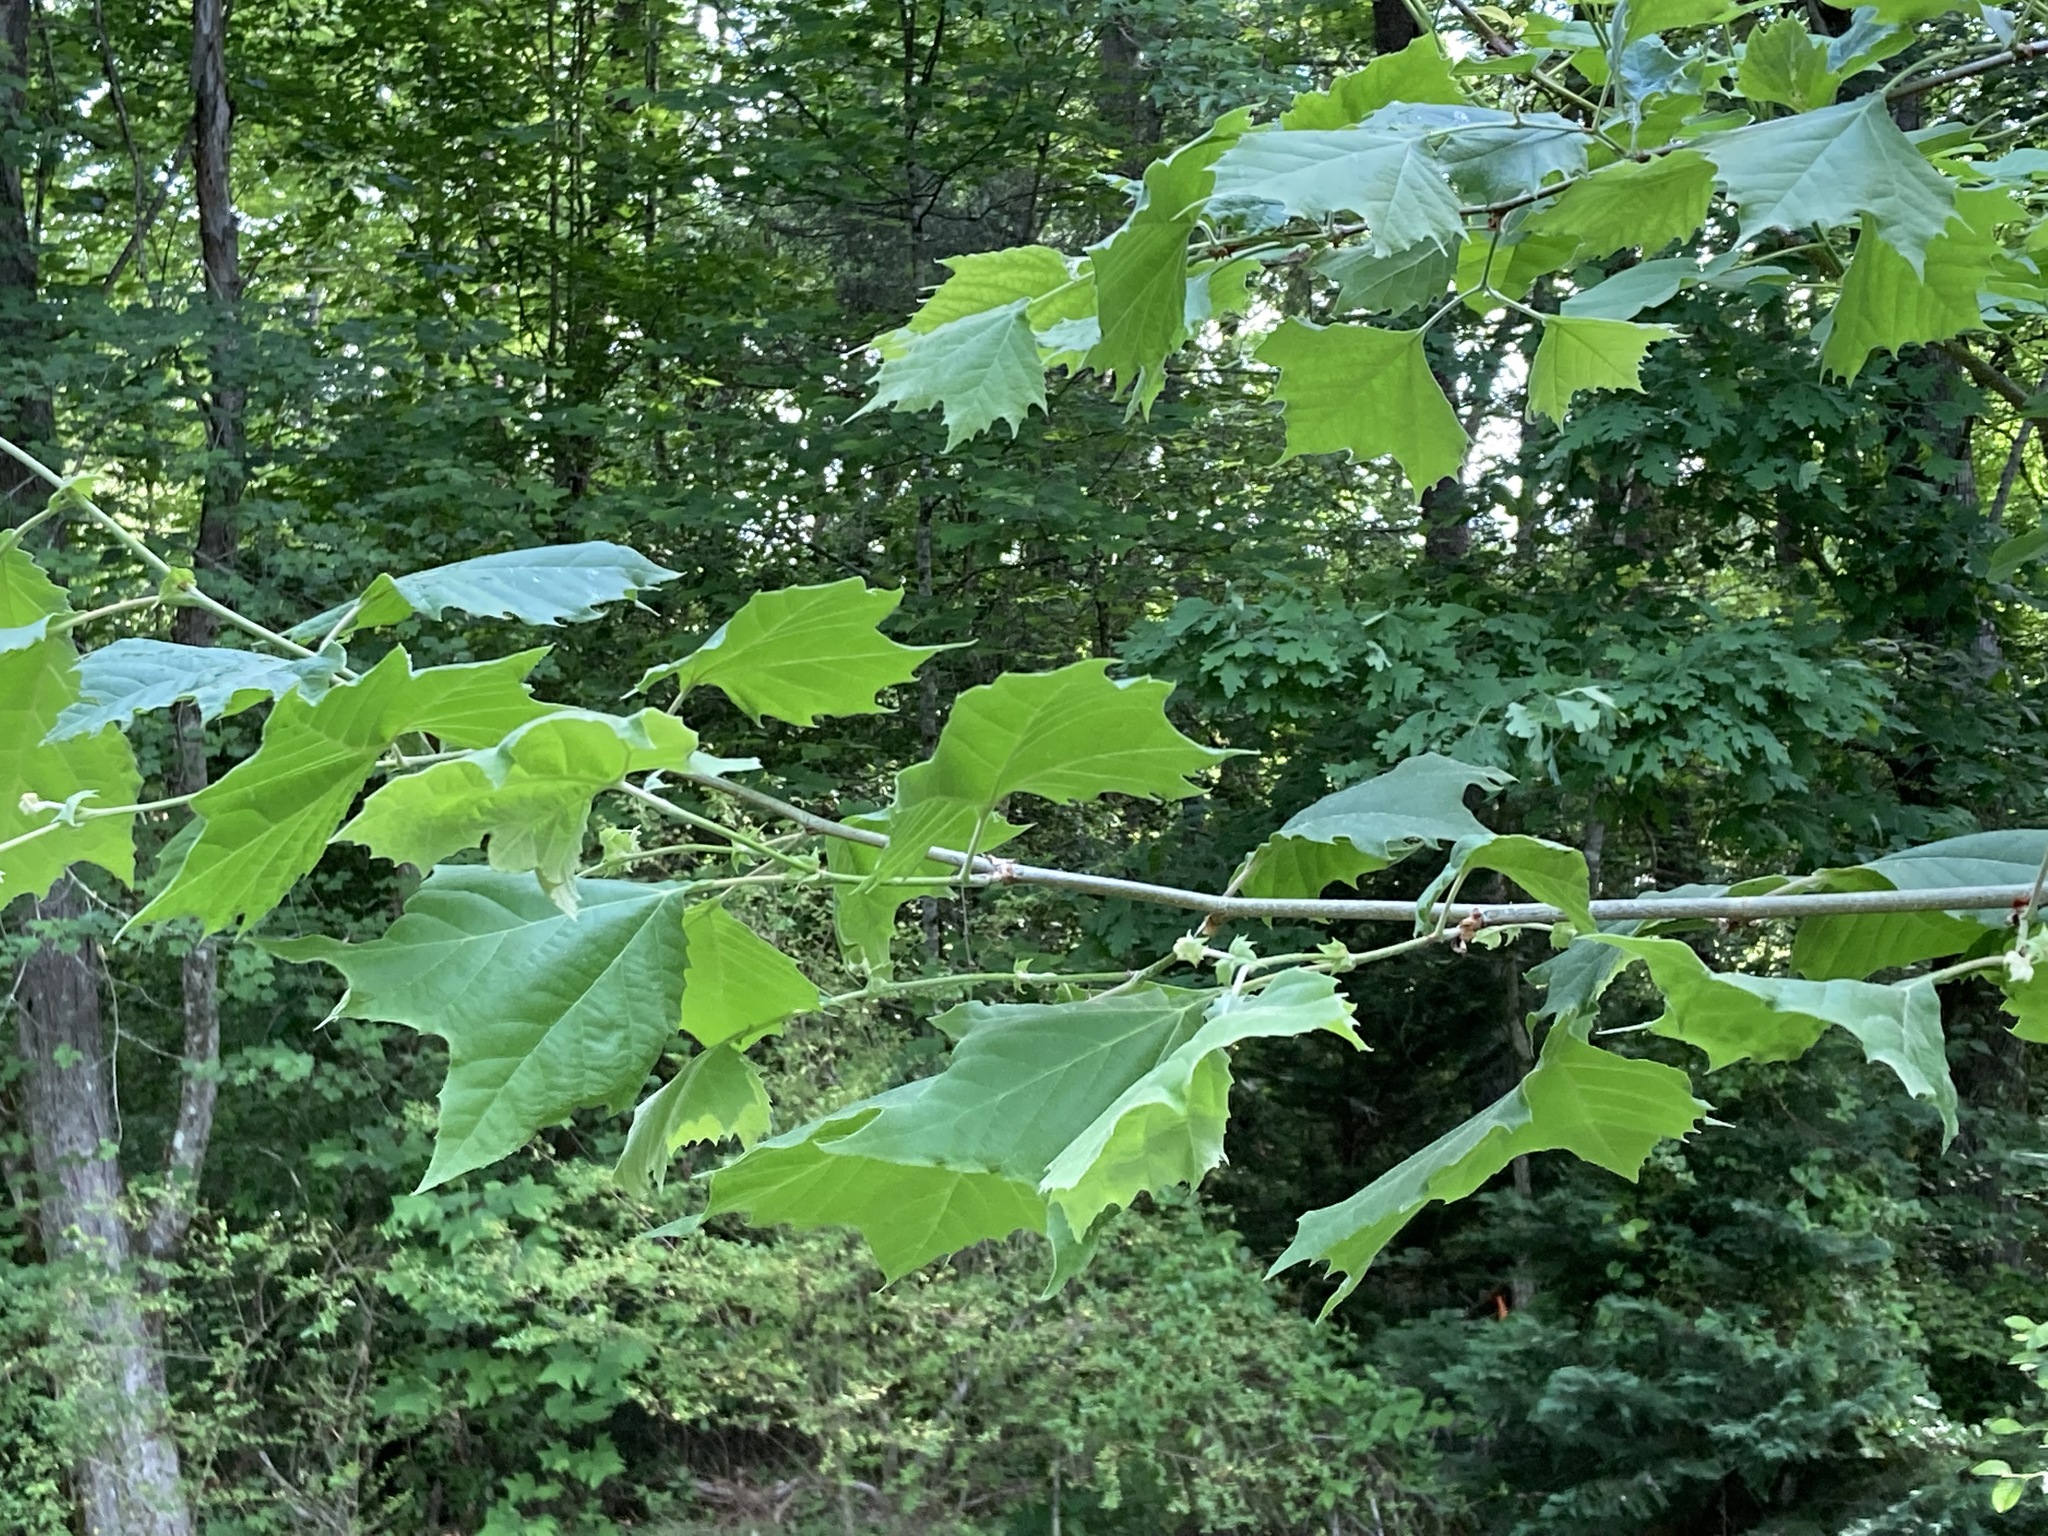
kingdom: Plantae
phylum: Tracheophyta
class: Magnoliopsida
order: Proteales
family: Platanaceae
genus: Platanus
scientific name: Platanus occidentalis
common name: American sycamore
